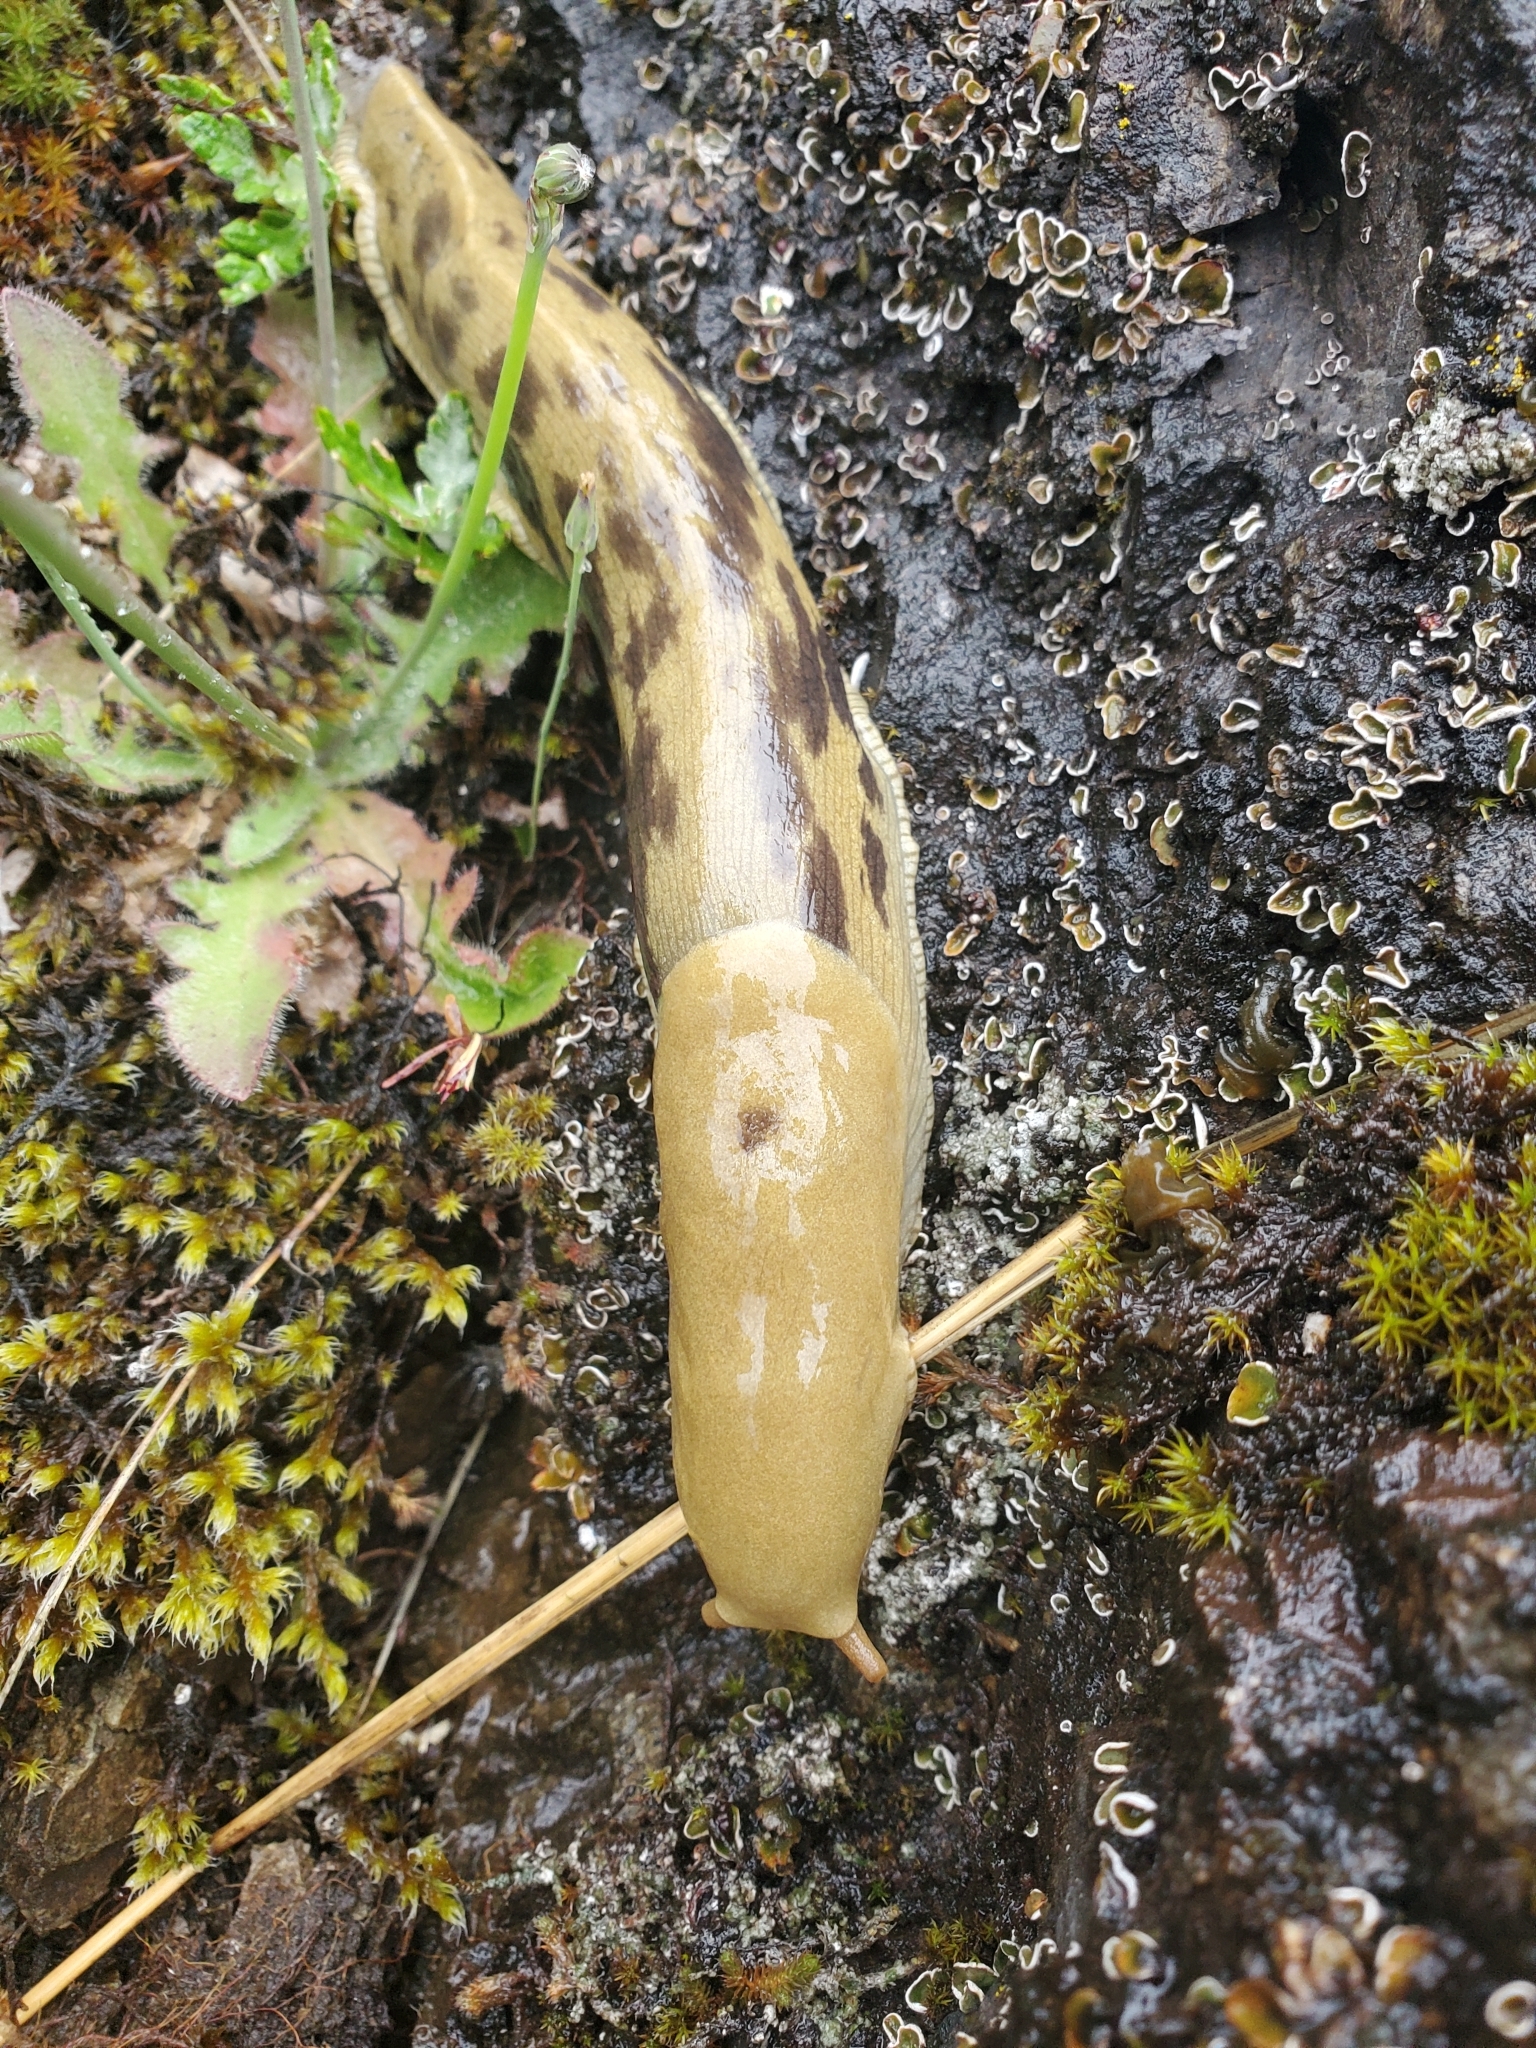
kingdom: Animalia
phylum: Mollusca
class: Gastropoda
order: Stylommatophora
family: Ariolimacidae
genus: Ariolimax
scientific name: Ariolimax columbianus
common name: Pacific banana slug
